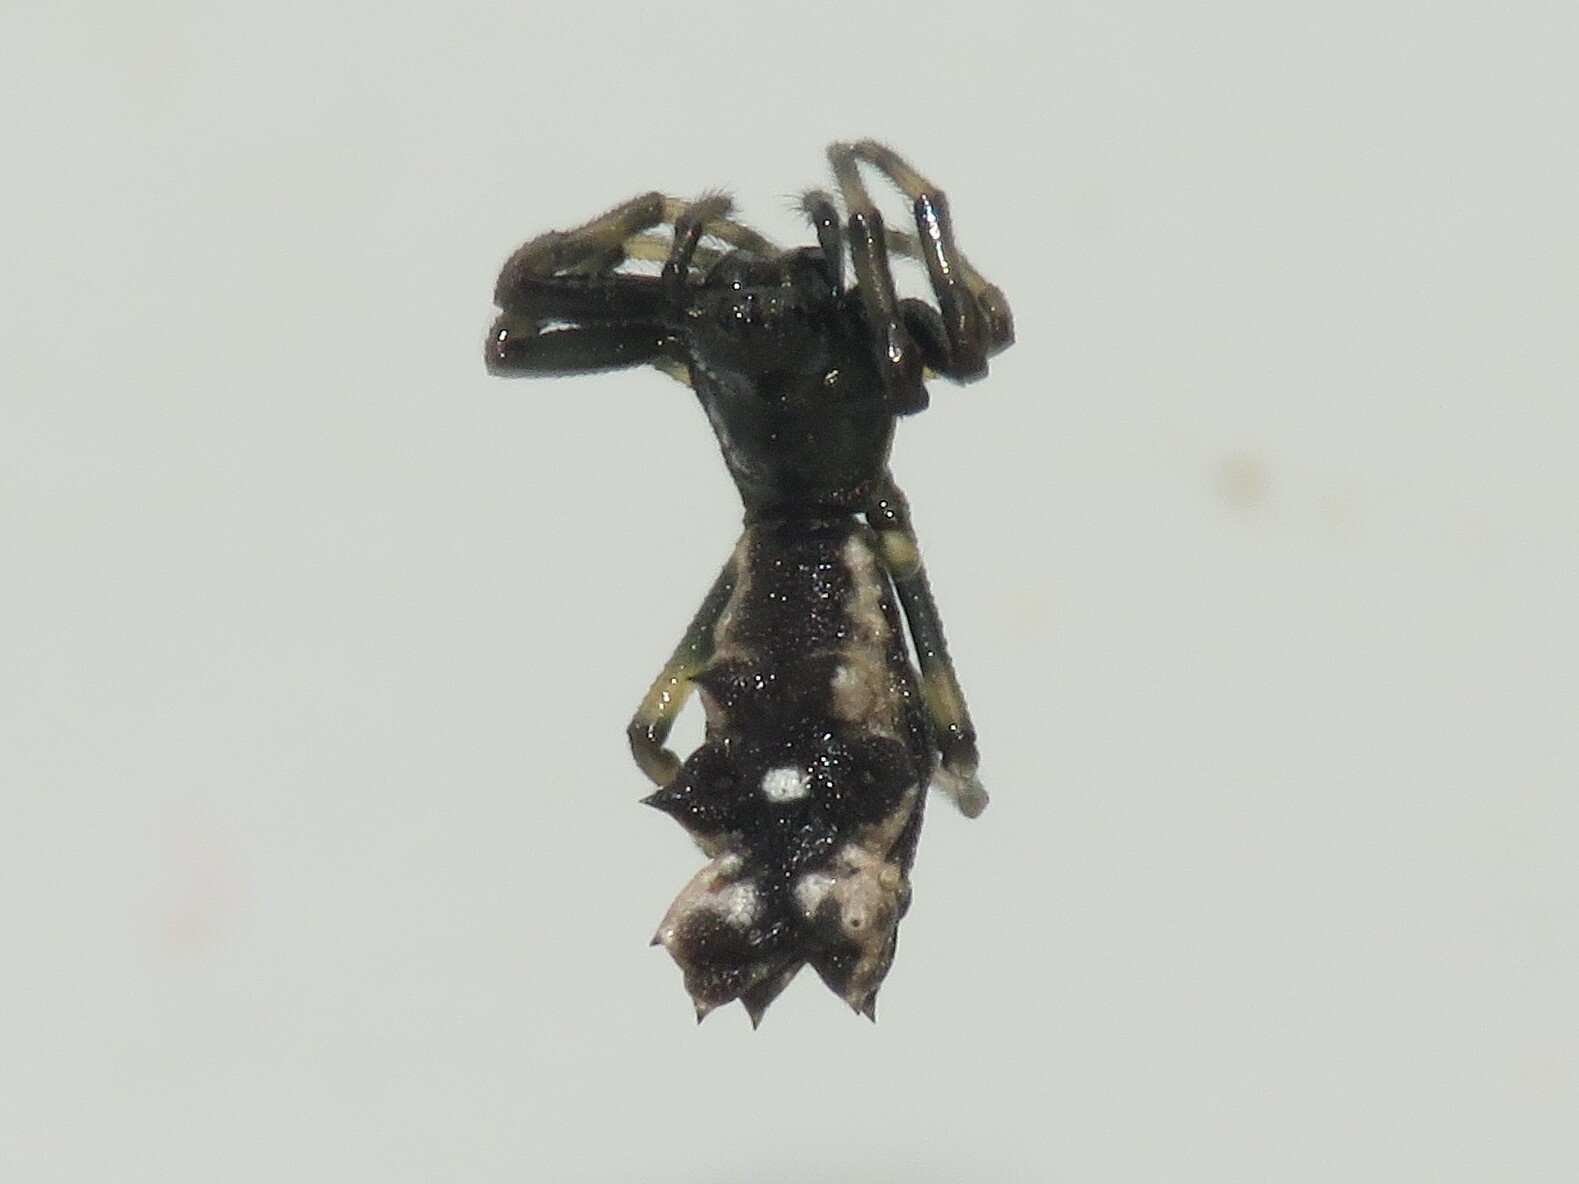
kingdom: Animalia
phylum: Arthropoda
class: Arachnida
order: Araneae
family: Araneidae
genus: Micrathena
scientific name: Micrathena gracilis
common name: Orb weavers
